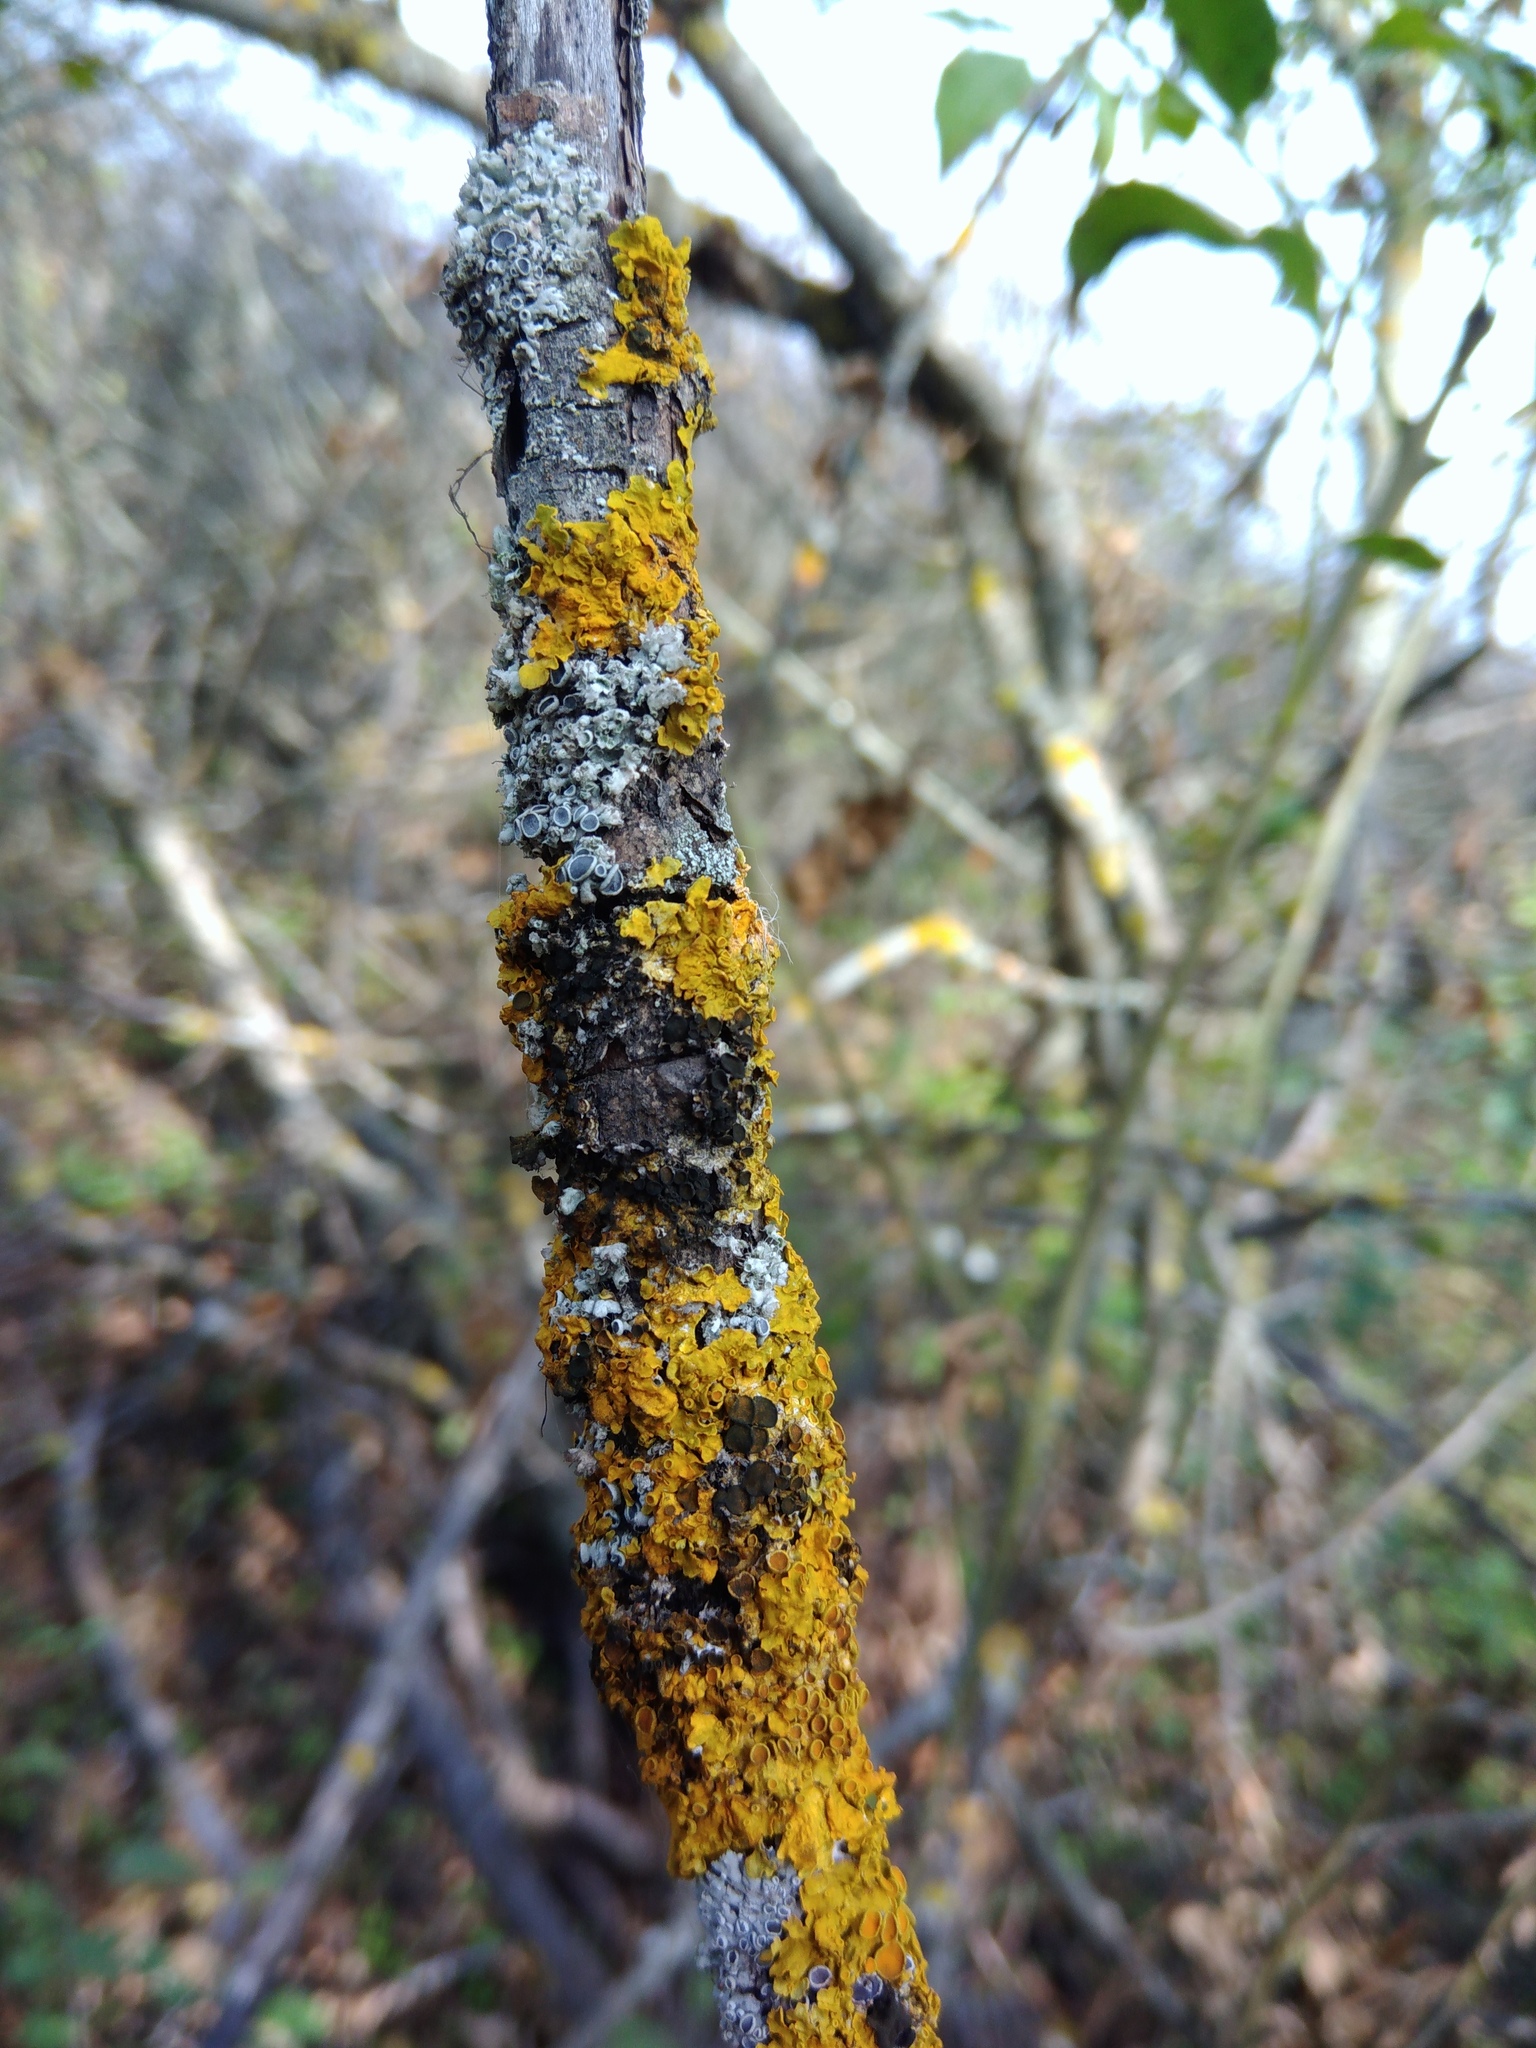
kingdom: Fungi
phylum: Ascomycota
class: Dothideomycetes
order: Mycosphaerellales
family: Teratosphaeriaceae
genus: Xanthoriicola
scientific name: Xanthoriicola physciae
